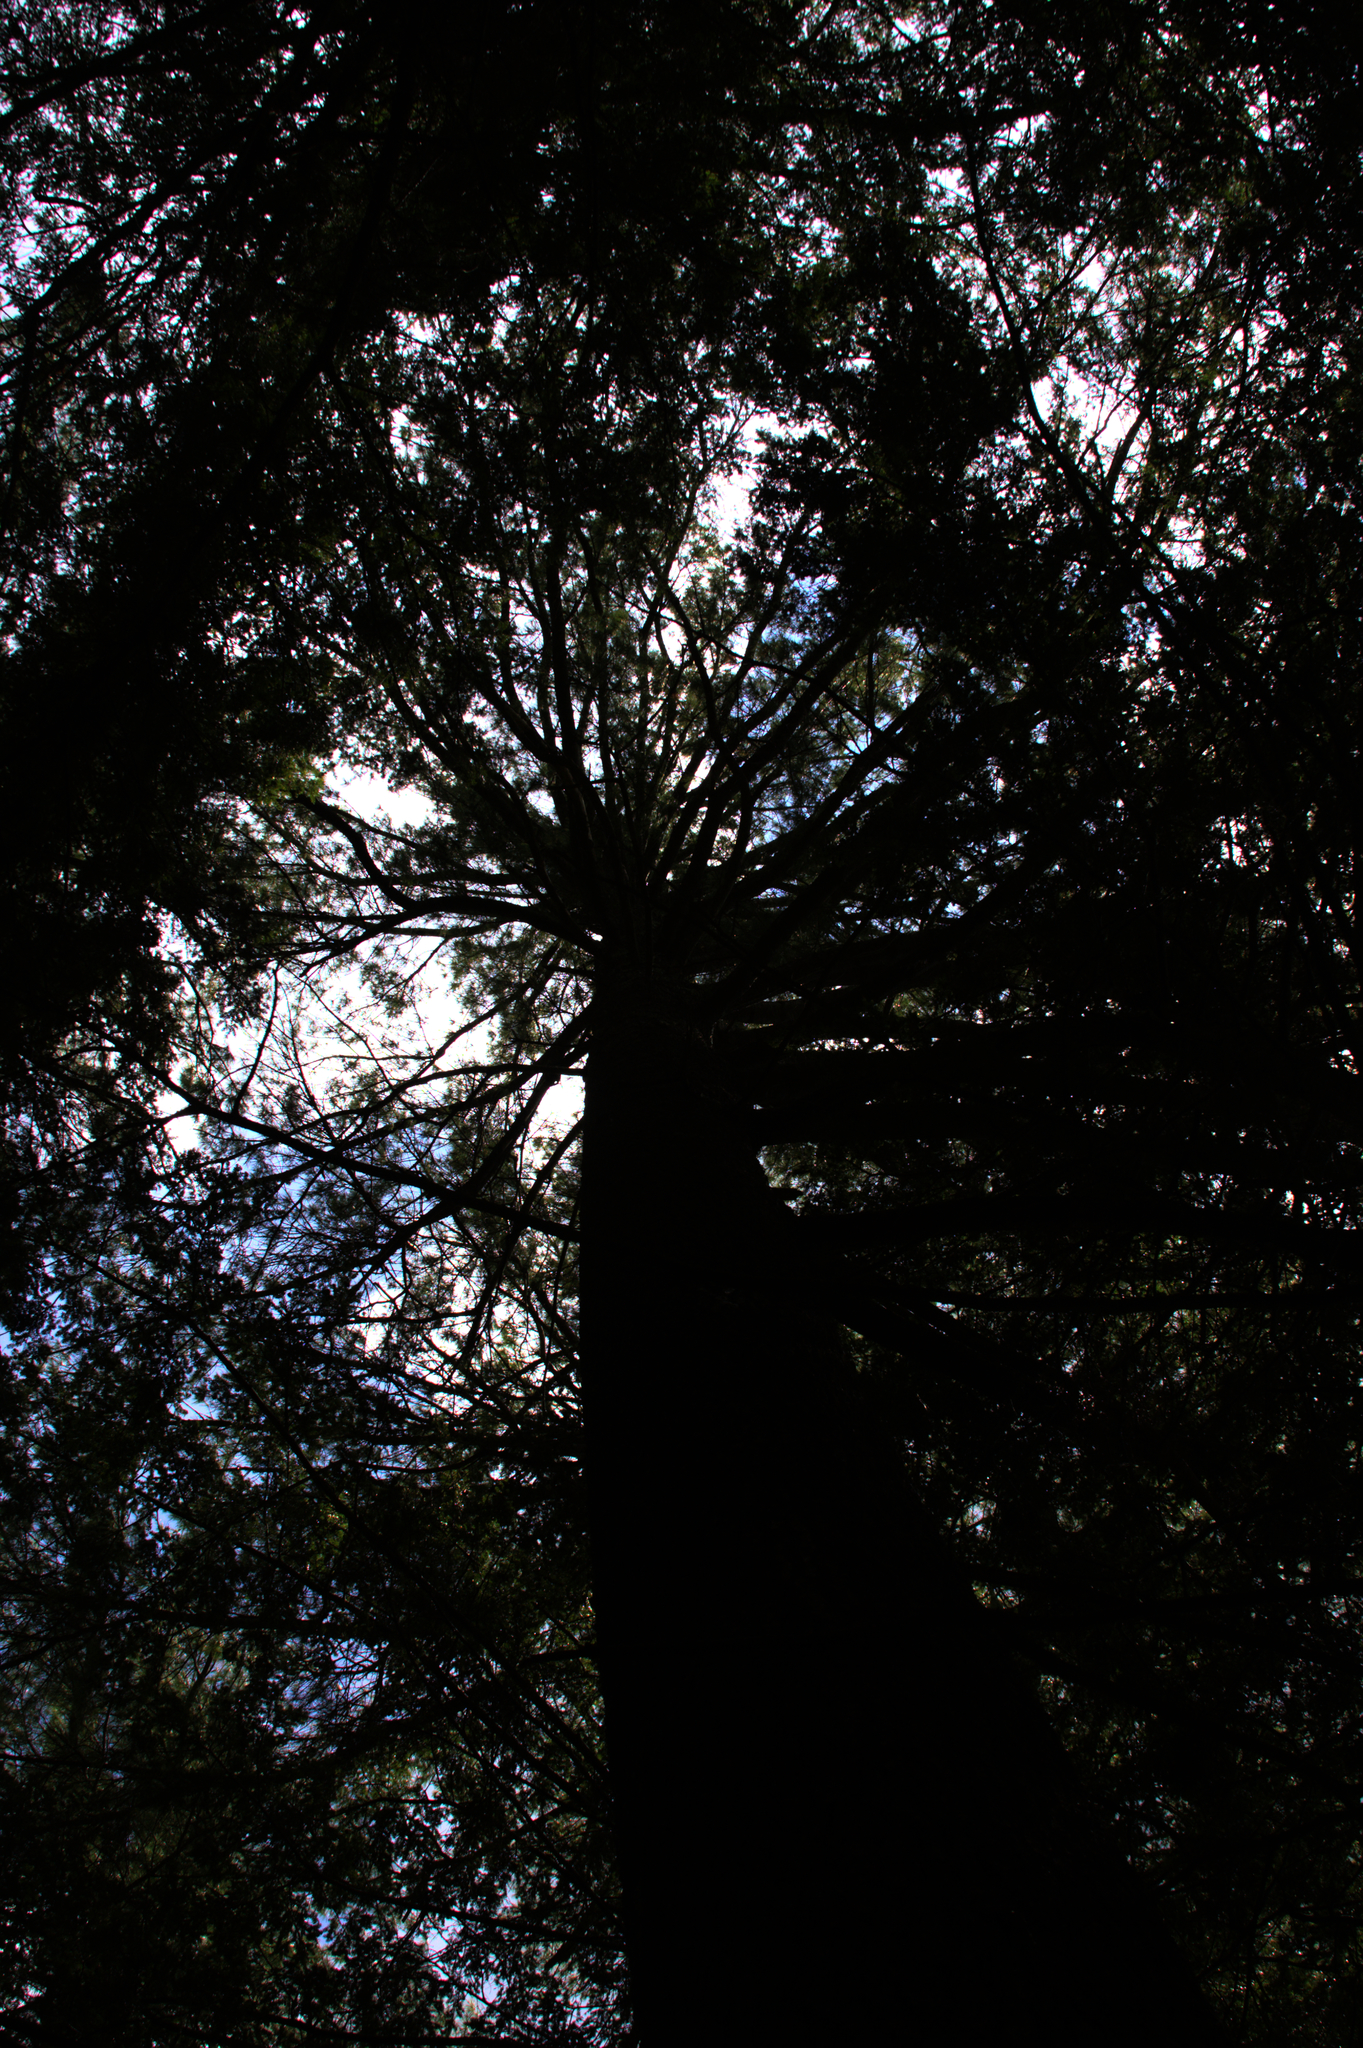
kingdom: Plantae
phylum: Tracheophyta
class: Pinopsida
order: Pinales
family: Pinaceae
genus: Pinus
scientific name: Pinus strobus
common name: Weymouth pine
